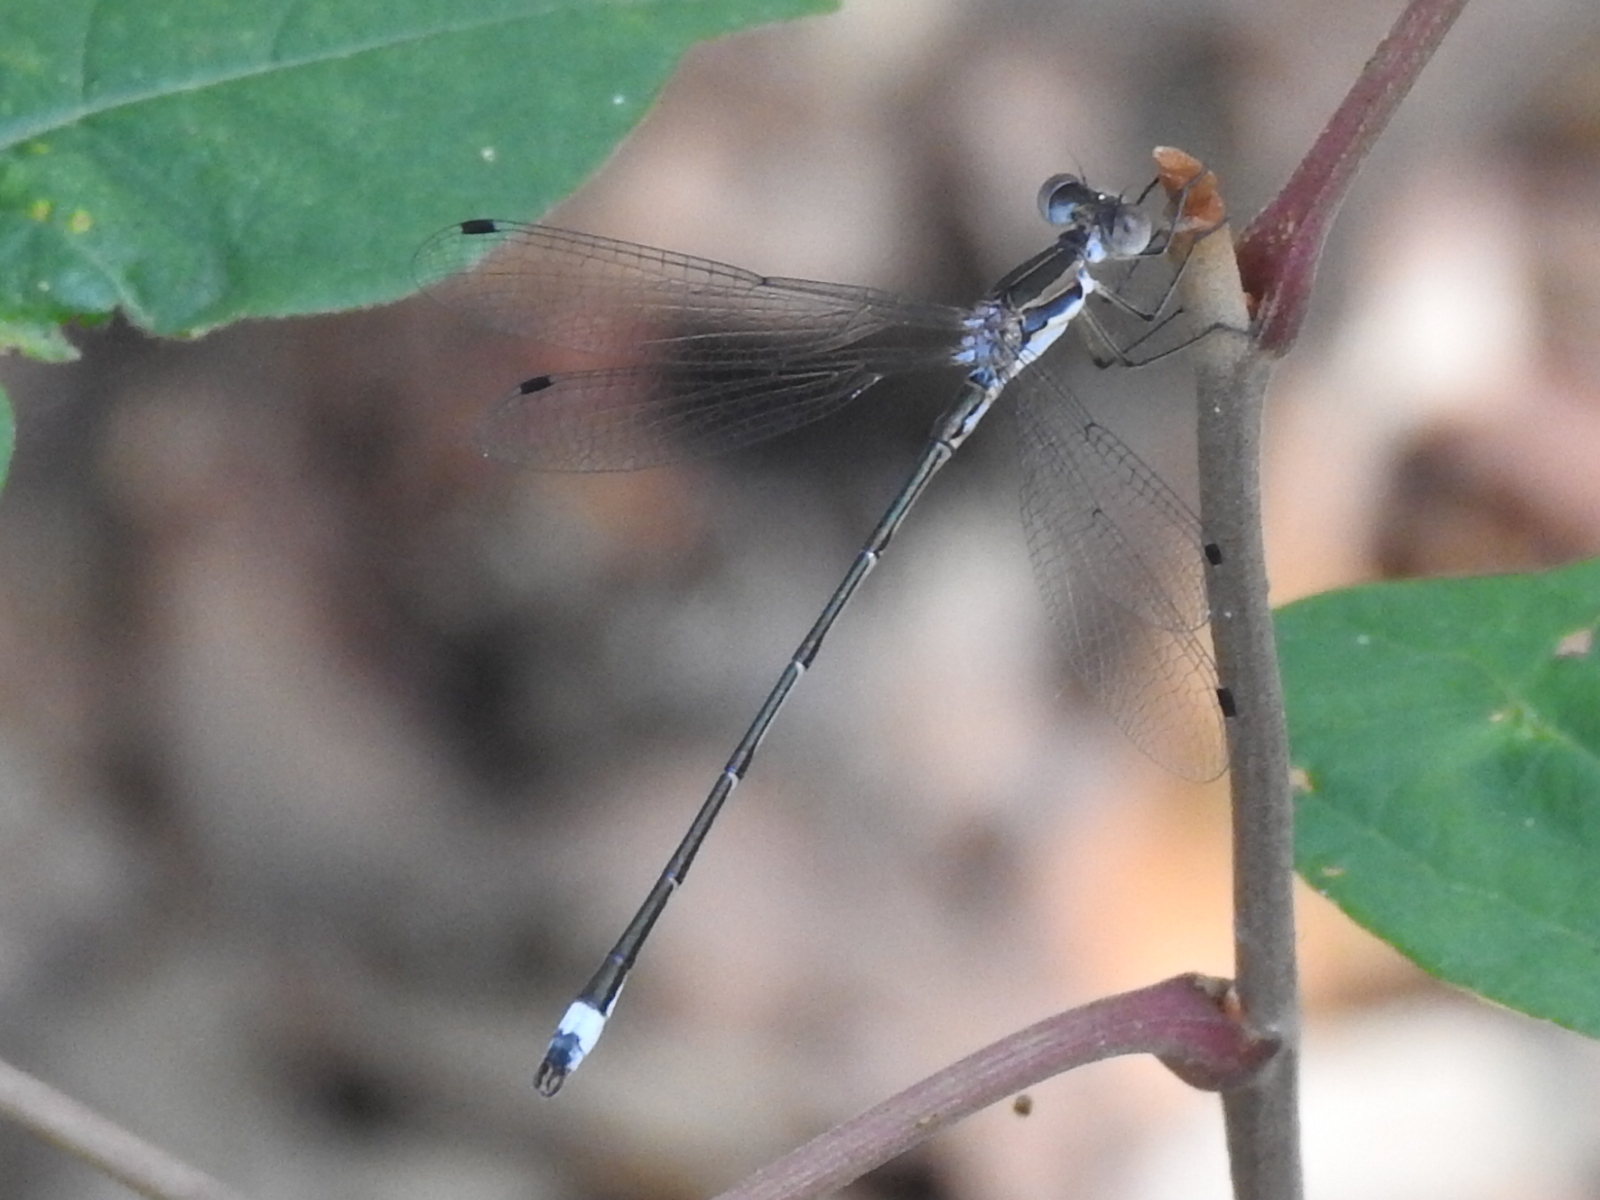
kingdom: Animalia
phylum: Arthropoda
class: Insecta
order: Odonata
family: Lestidae
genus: Lestes
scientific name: Lestes australis
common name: Southern spreadwing
